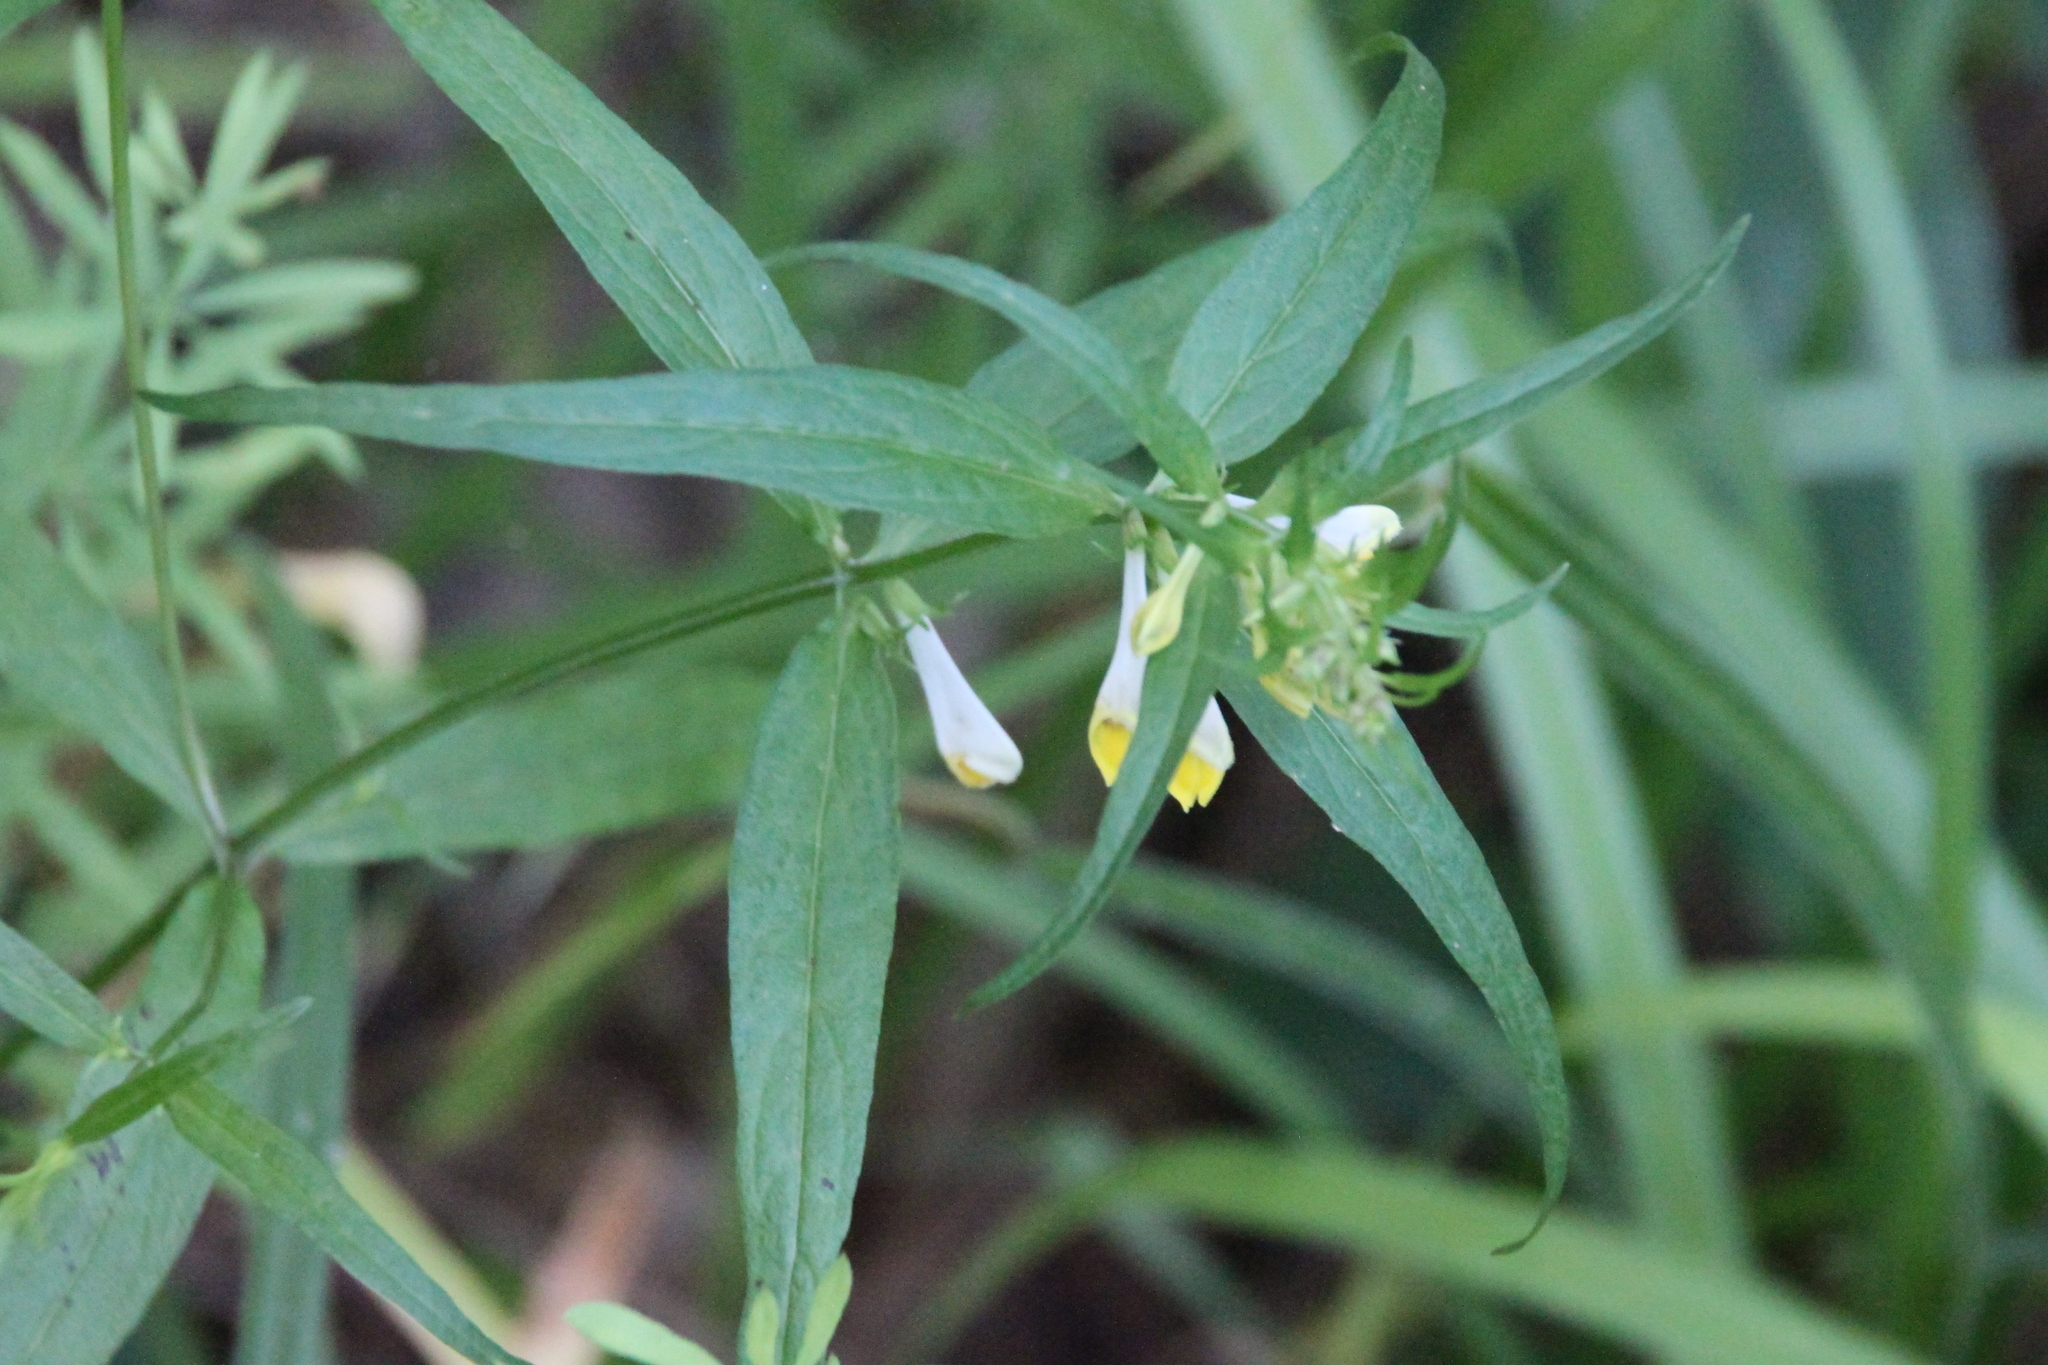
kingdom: Plantae
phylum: Tracheophyta
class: Magnoliopsida
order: Lamiales
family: Orobanchaceae
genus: Melampyrum
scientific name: Melampyrum pratense
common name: Common cow-wheat
